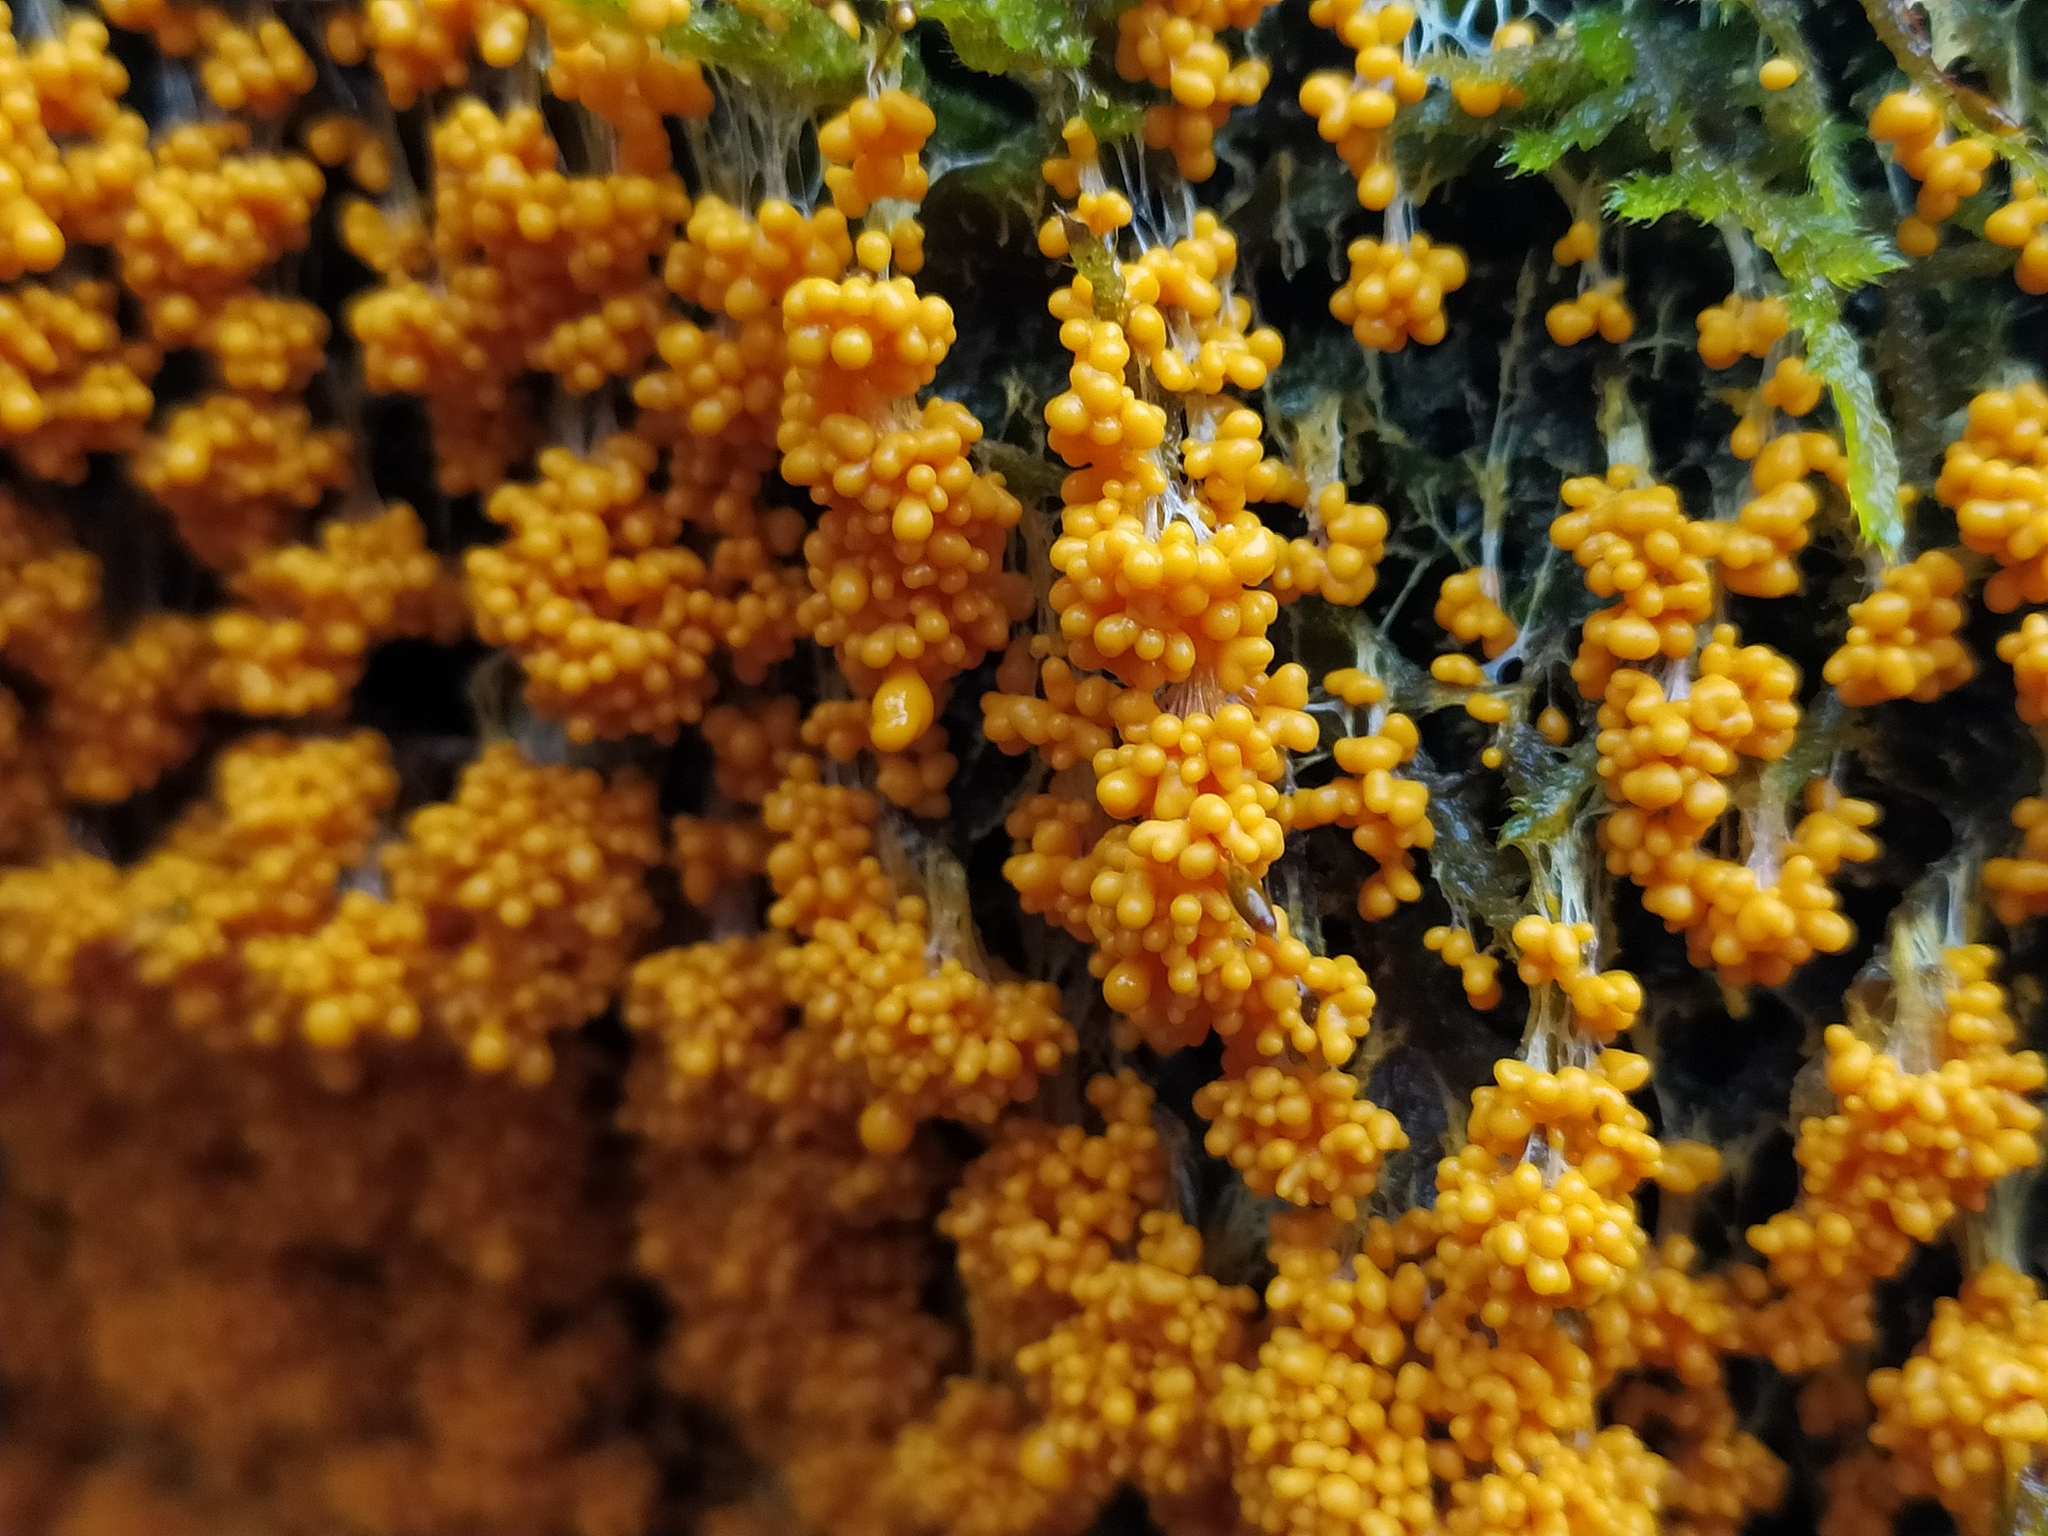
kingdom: Protozoa
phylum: Mycetozoa
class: Myxomycetes
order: Physarales
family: Physaraceae
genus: Badhamia
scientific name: Badhamia utricularis
